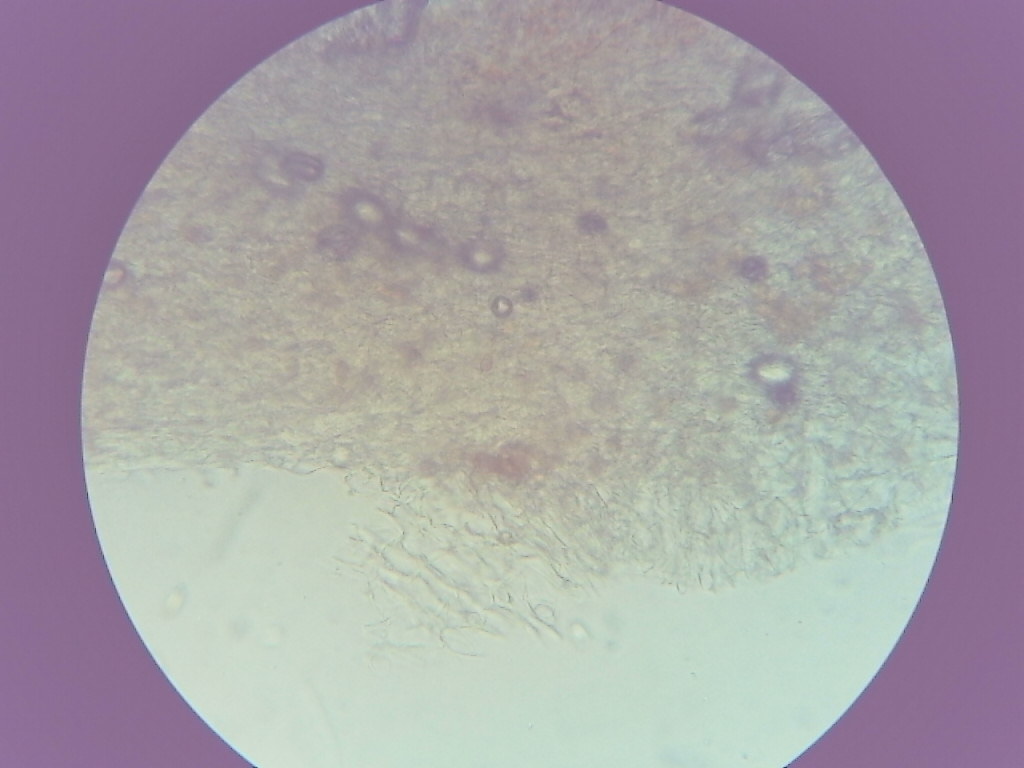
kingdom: Fungi
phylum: Basidiomycota
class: Agaricomycetes
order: Agaricales
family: Strophariaceae
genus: Pholiota
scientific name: Pholiota lenta
